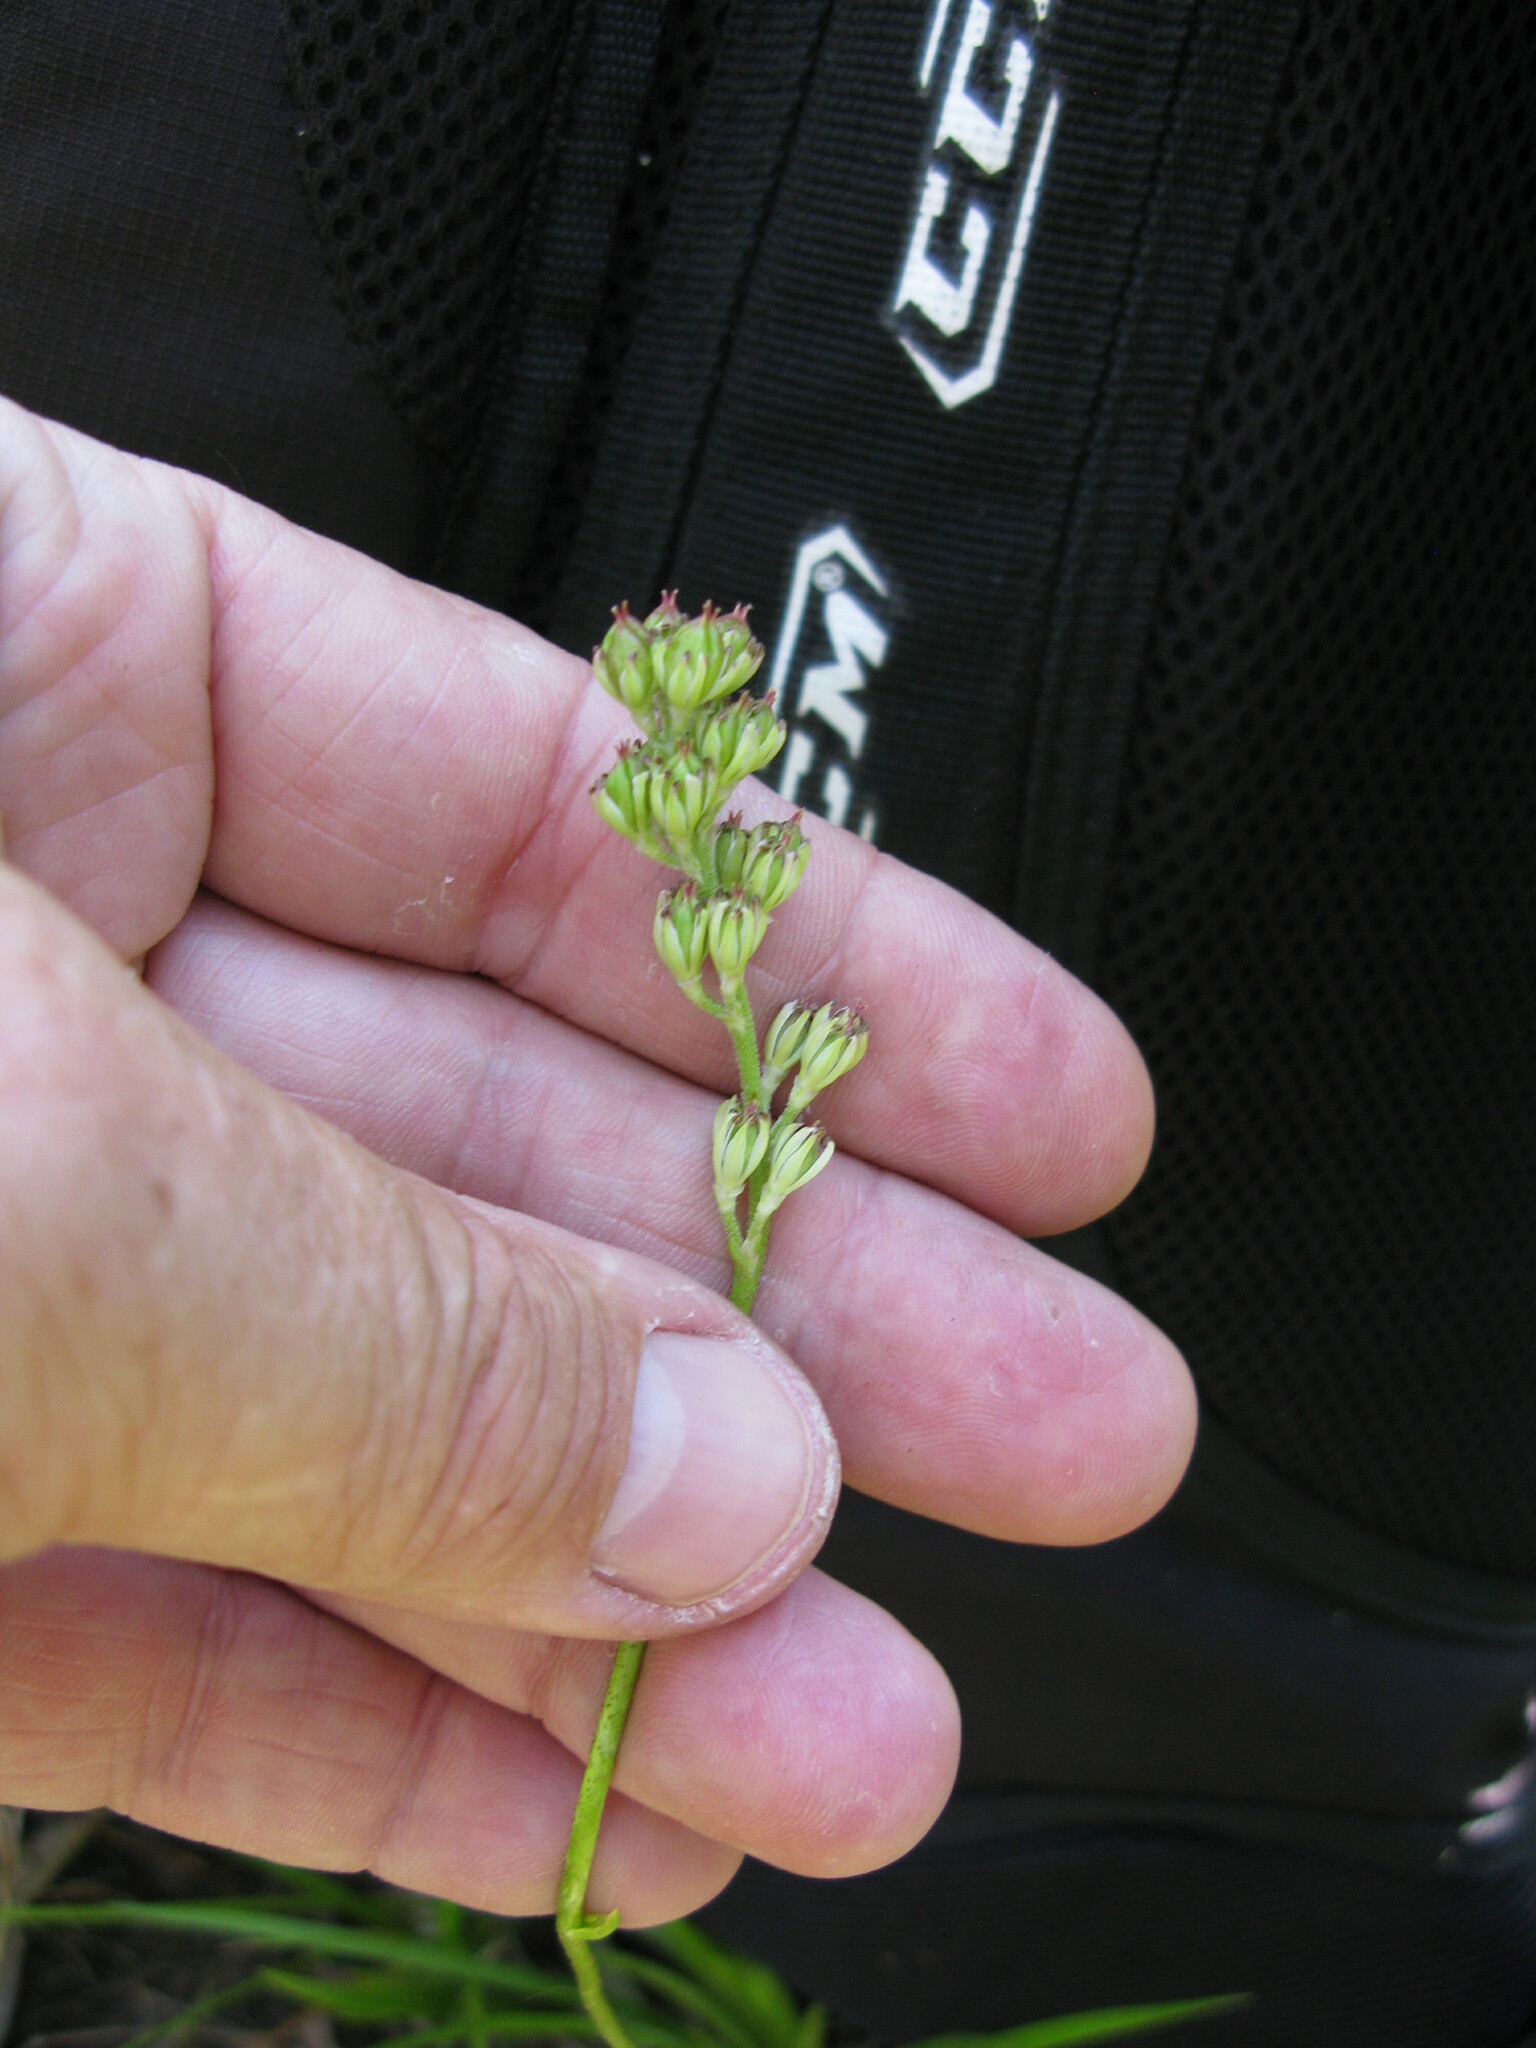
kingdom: Plantae
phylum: Tracheophyta
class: Liliopsida
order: Alismatales
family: Tofieldiaceae
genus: Triantha
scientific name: Triantha glutinosa
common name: Glutinous tofieldia
